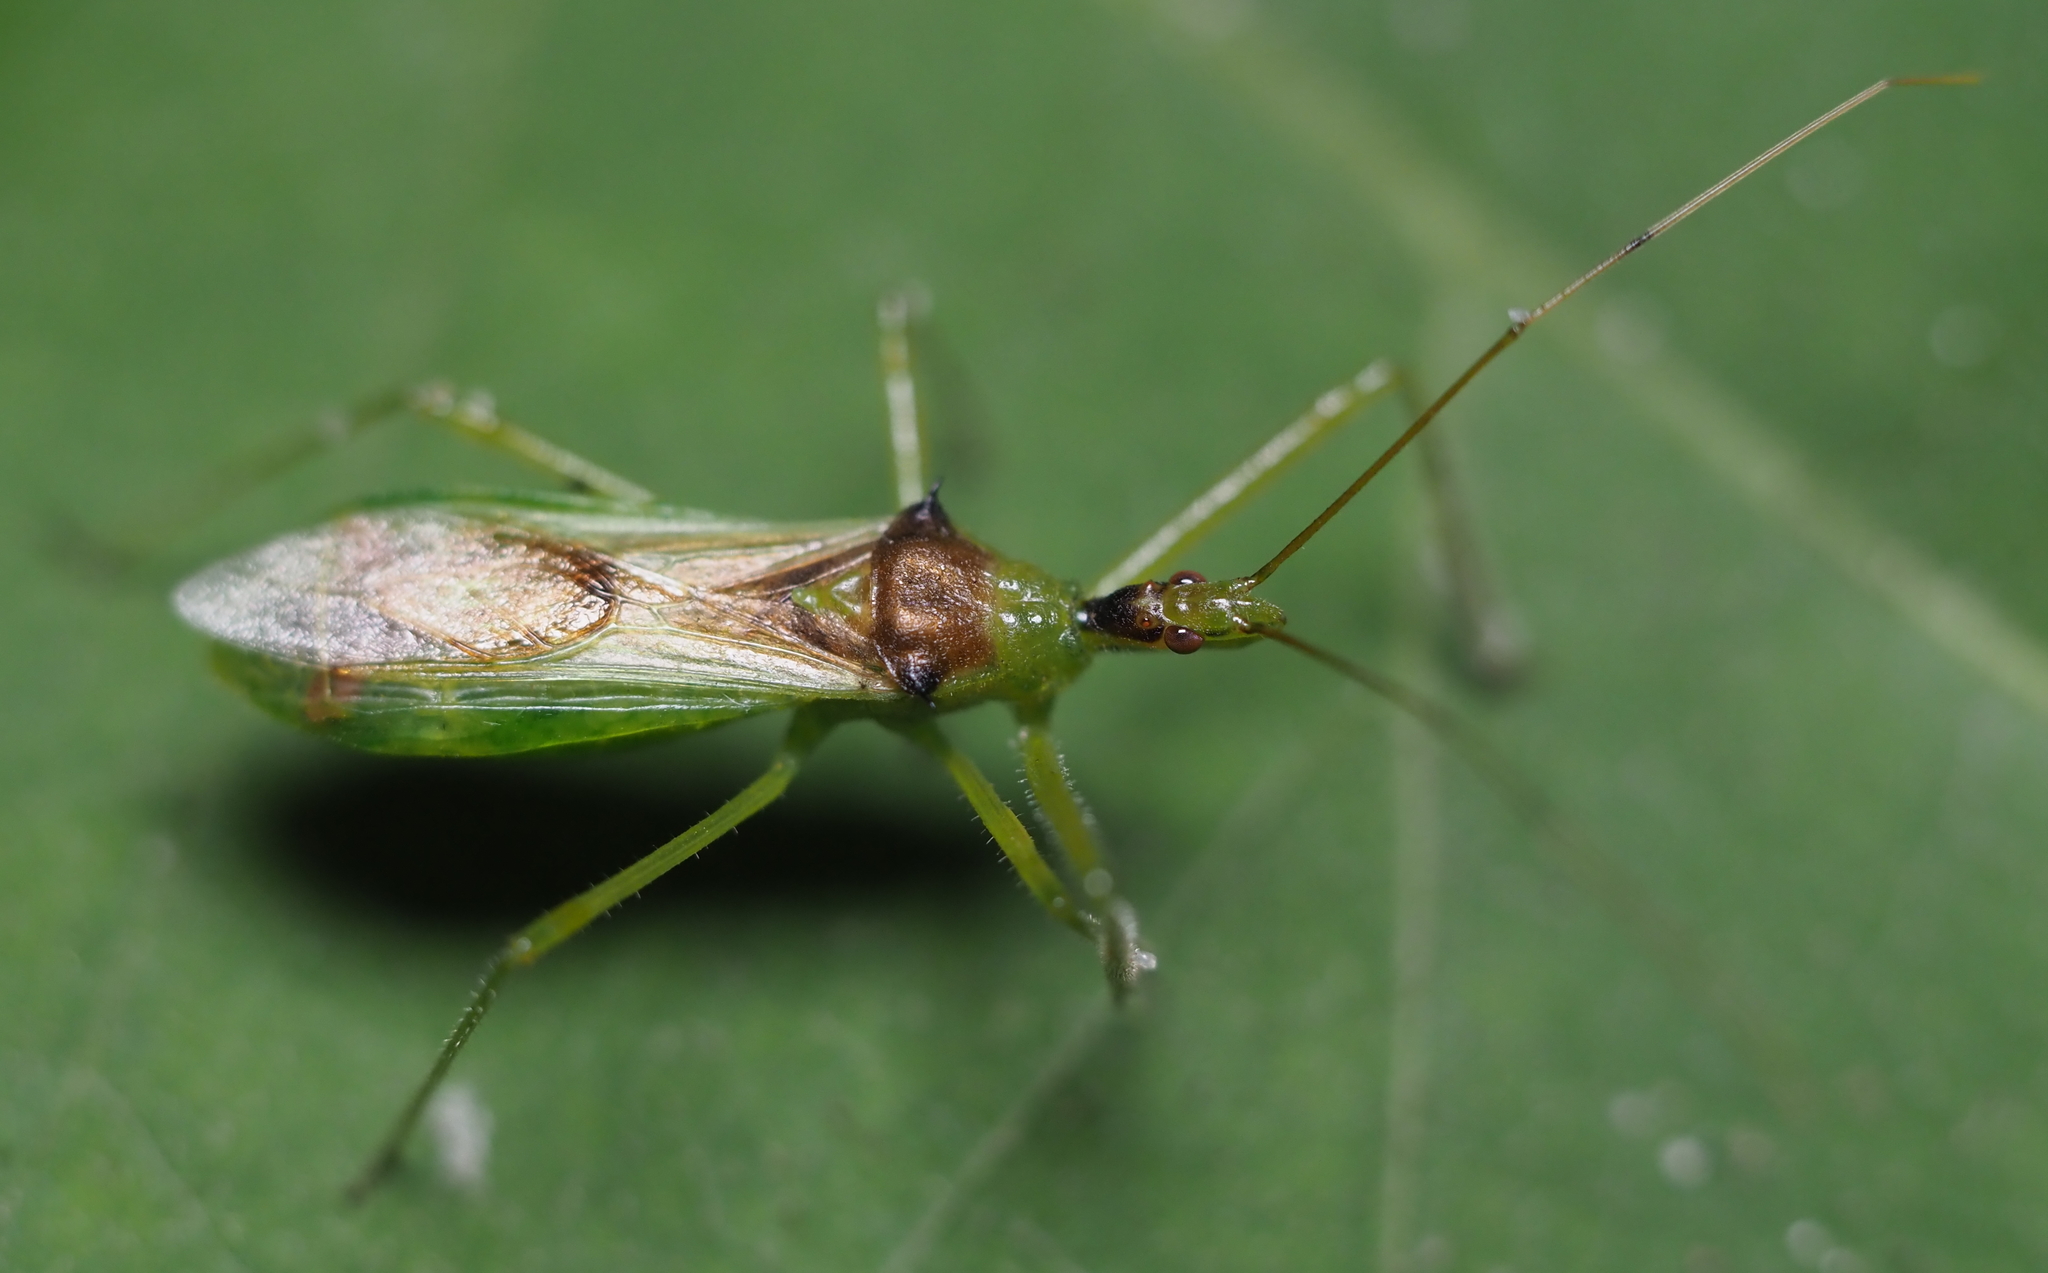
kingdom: Animalia
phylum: Arthropoda
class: Insecta
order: Hemiptera
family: Reduviidae
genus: Zelus
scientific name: Zelus luridus
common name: Pale green assassin bug
